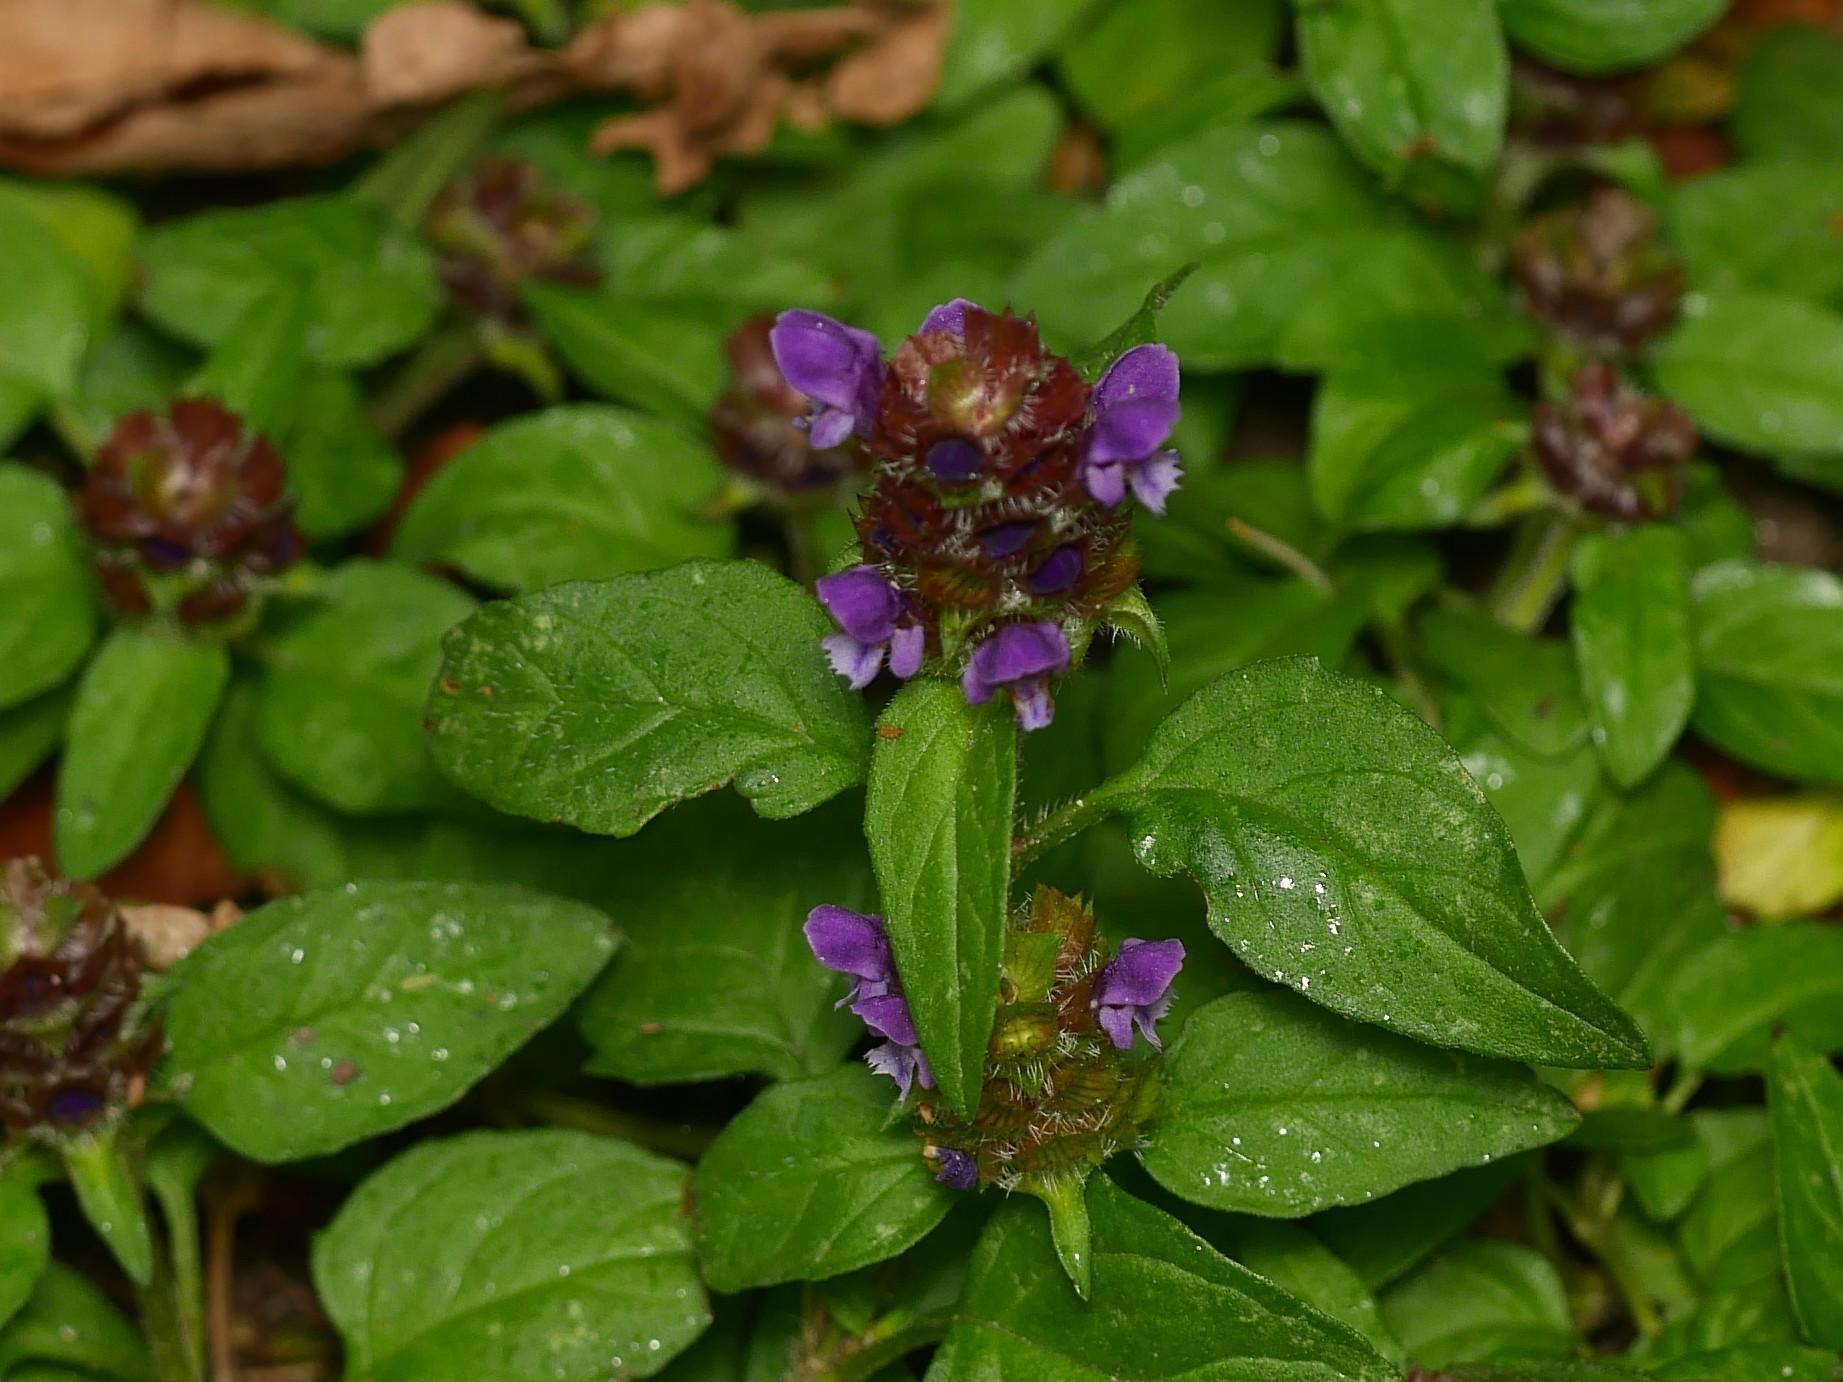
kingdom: Plantae
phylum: Tracheophyta
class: Magnoliopsida
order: Lamiales
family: Lamiaceae
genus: Prunella
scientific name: Prunella vulgaris
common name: Heal-all
